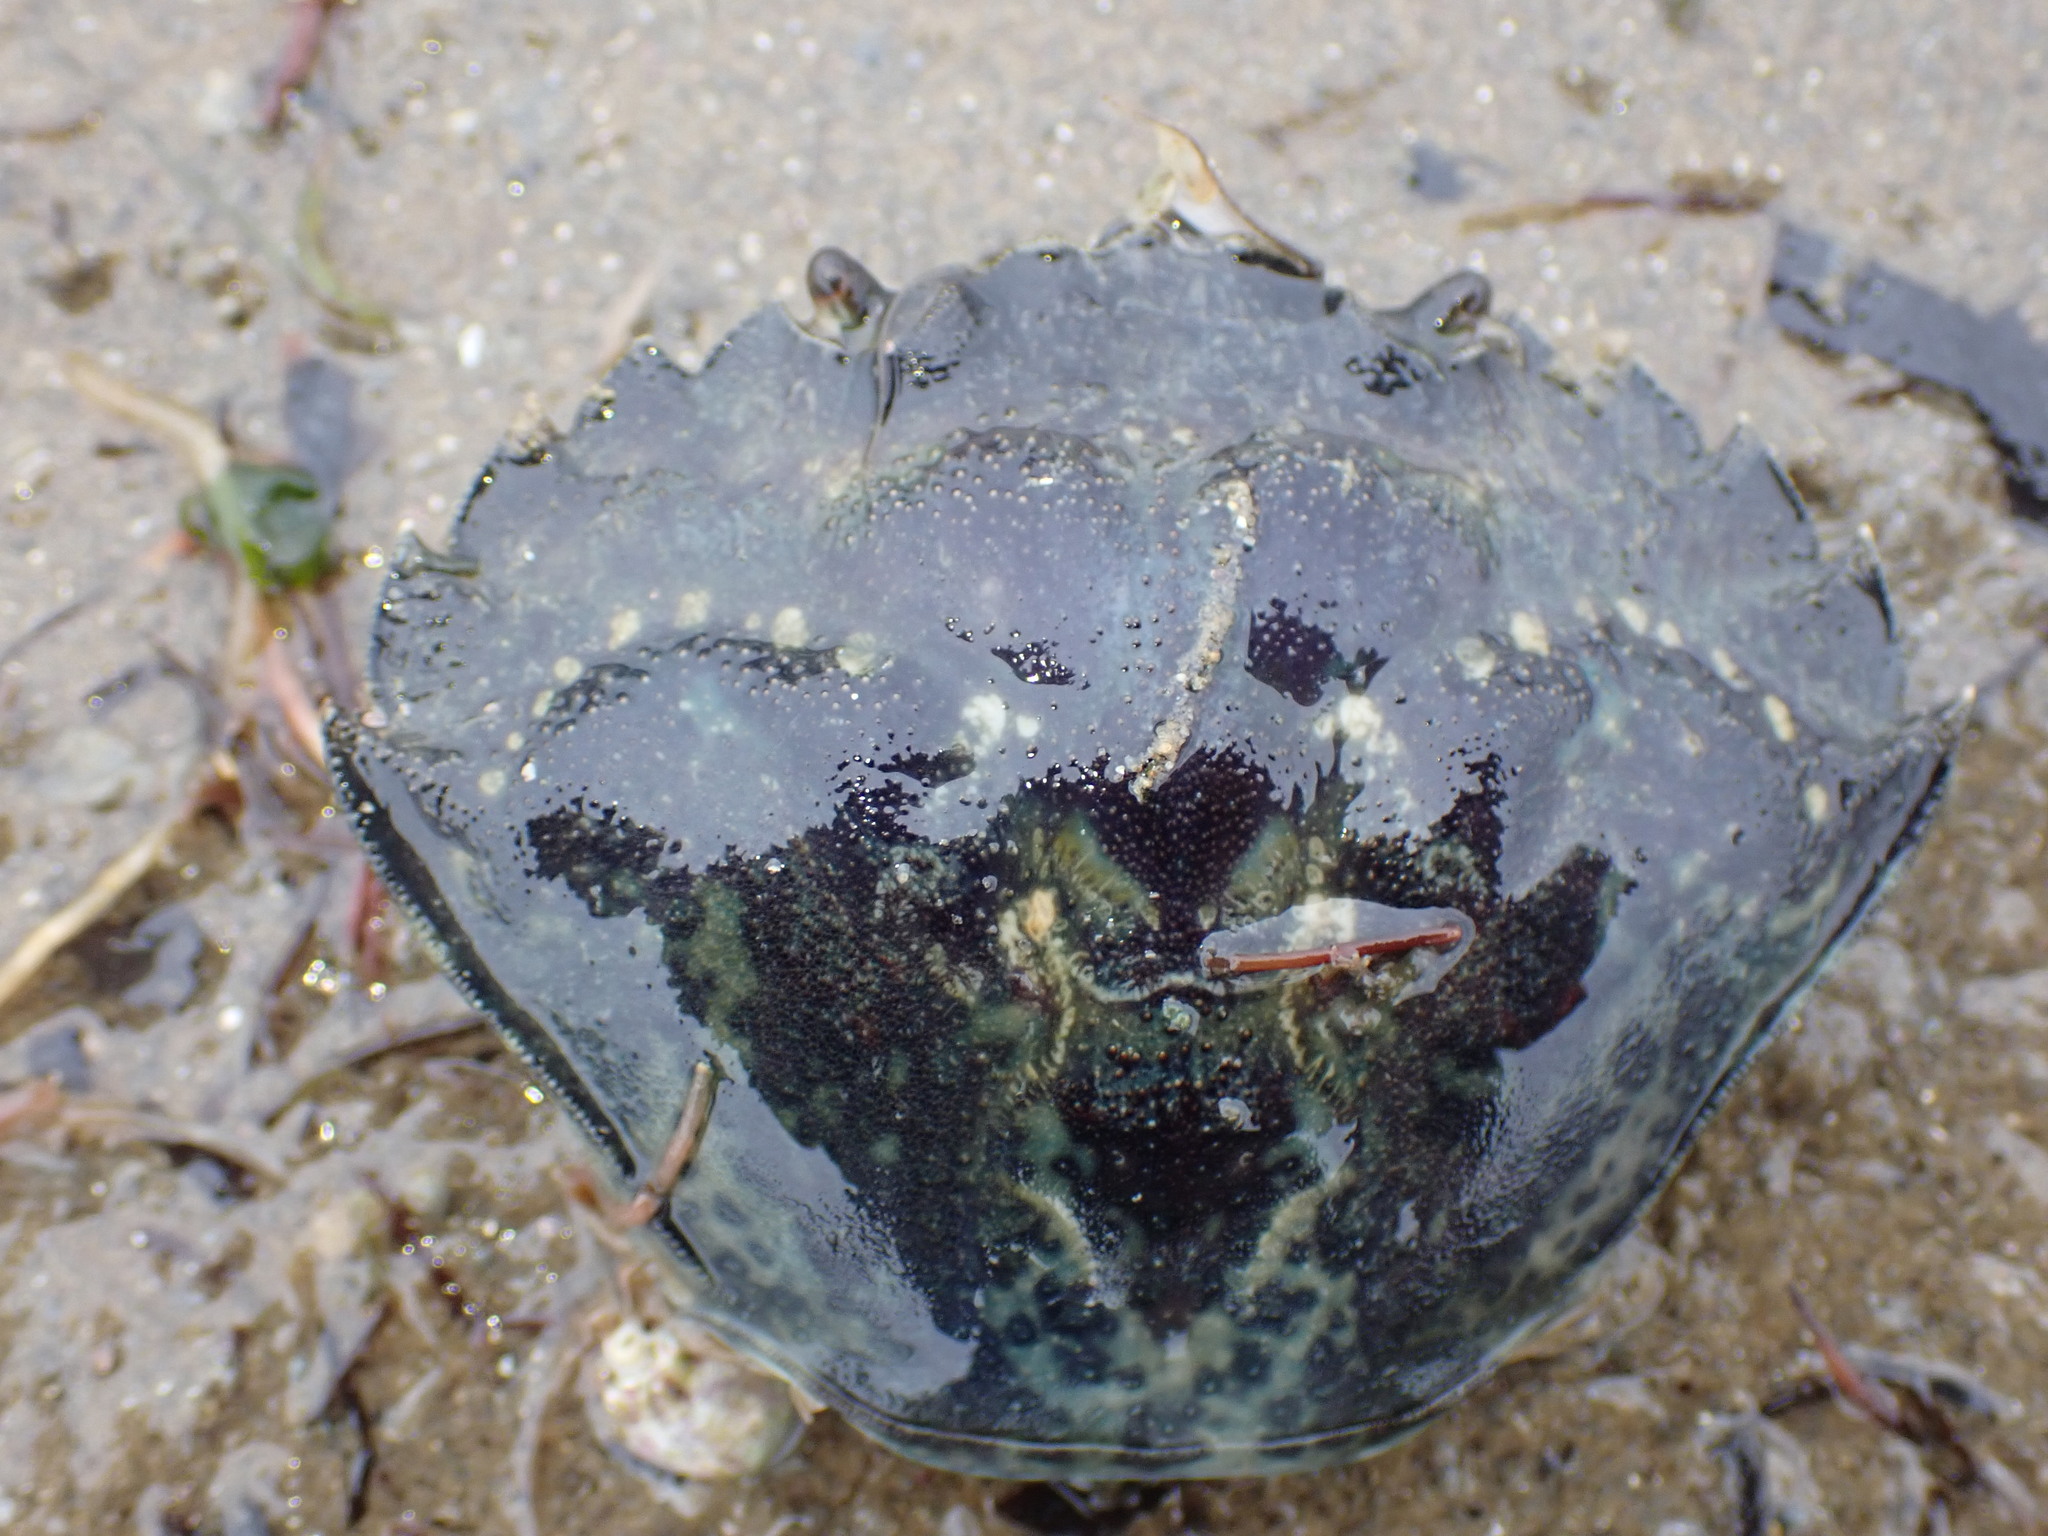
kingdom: Animalia
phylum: Arthropoda
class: Malacostraca
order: Decapoda
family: Carcinidae
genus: Carcinus
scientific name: Carcinus maenas
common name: European green crab
